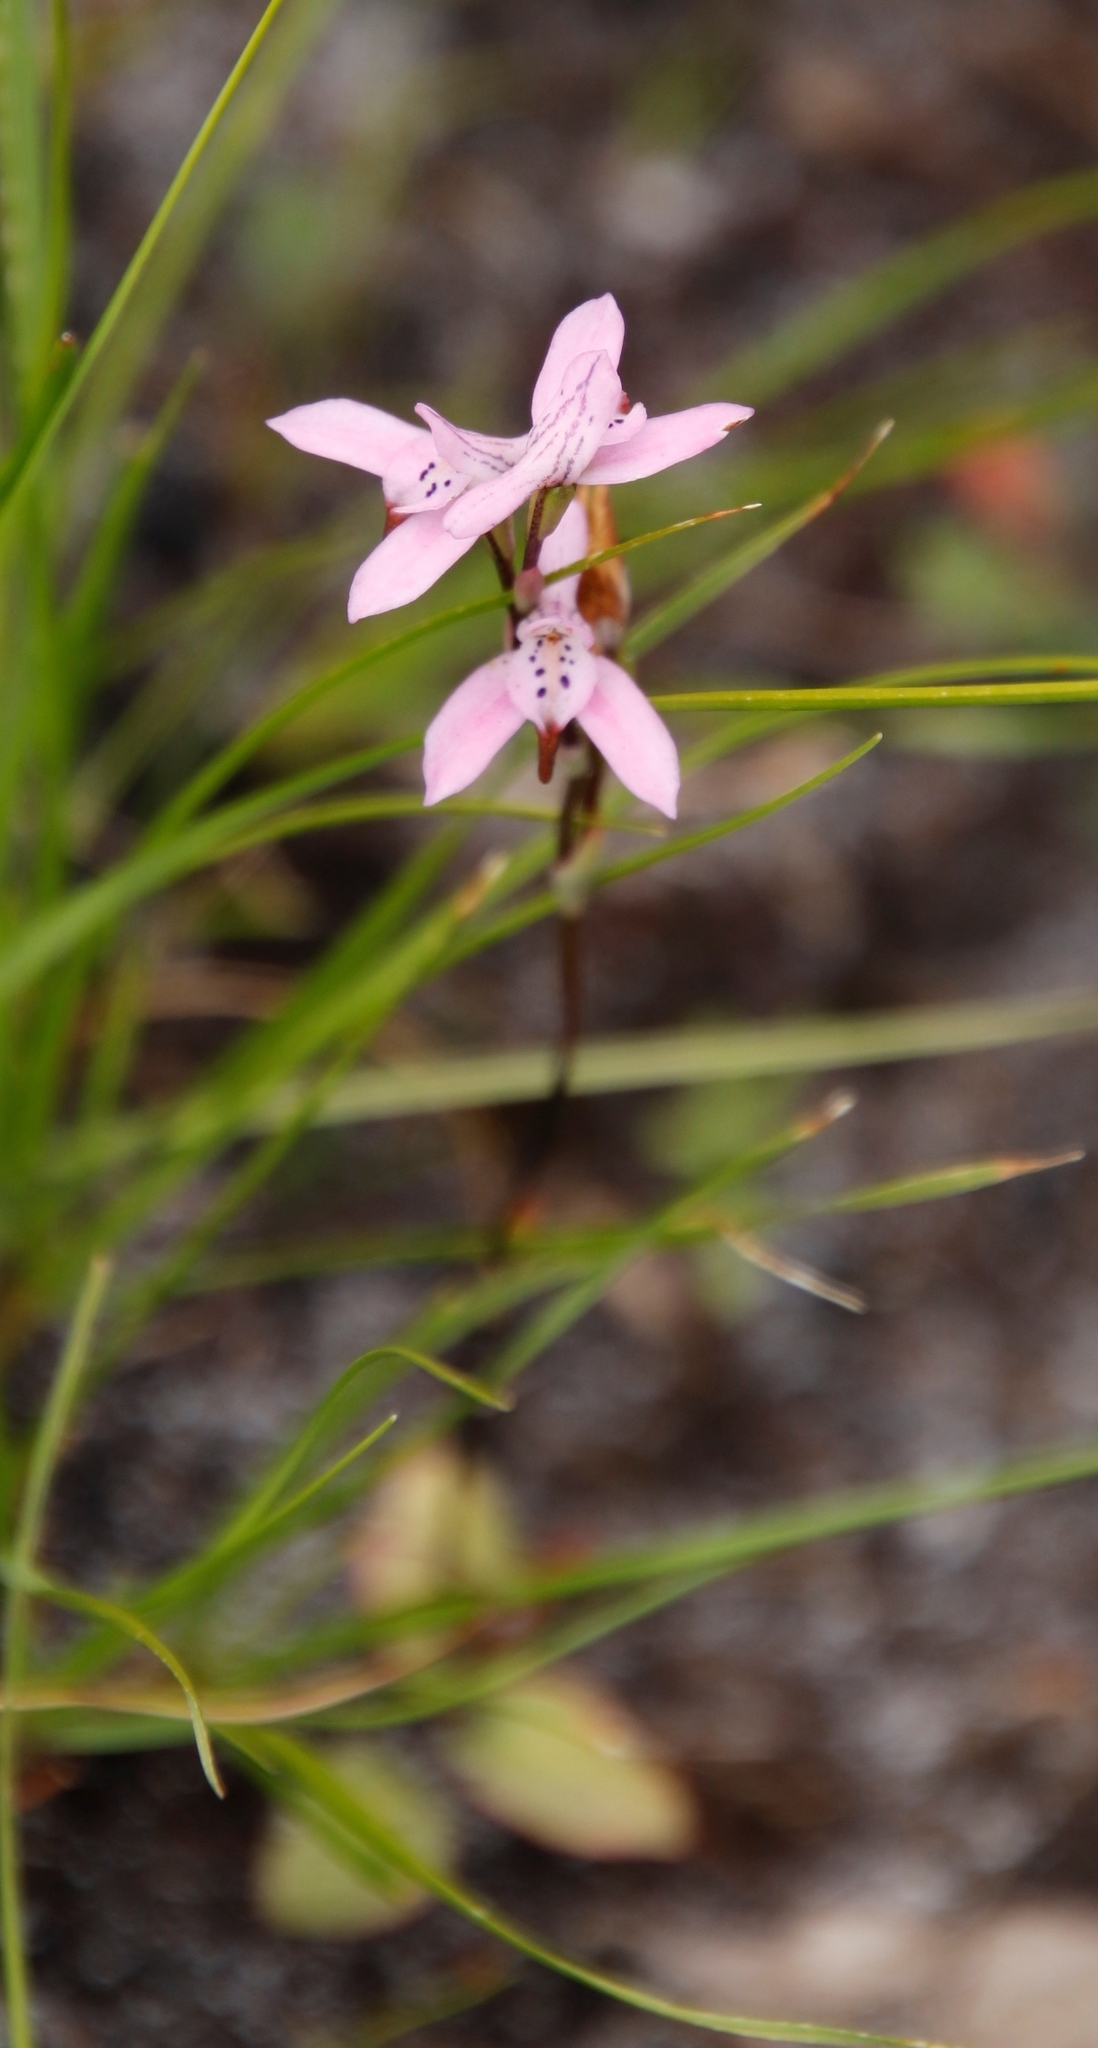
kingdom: Plantae
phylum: Tracheophyta
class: Liliopsida
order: Asparagales
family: Orchidaceae
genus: Disa
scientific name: Disa obliqua
